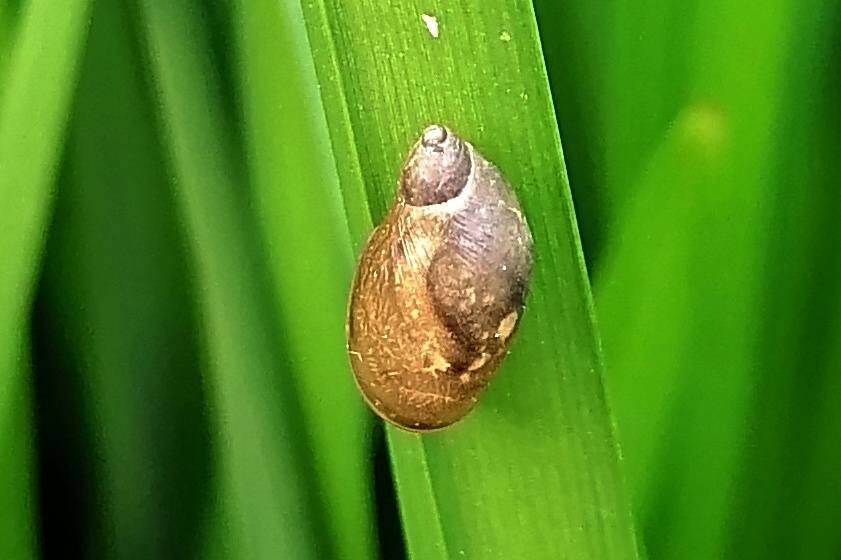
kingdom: Animalia
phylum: Mollusca
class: Gastropoda
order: Stylommatophora
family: Succineidae
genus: Succinea
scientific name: Succinea putris
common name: European ambersnail
